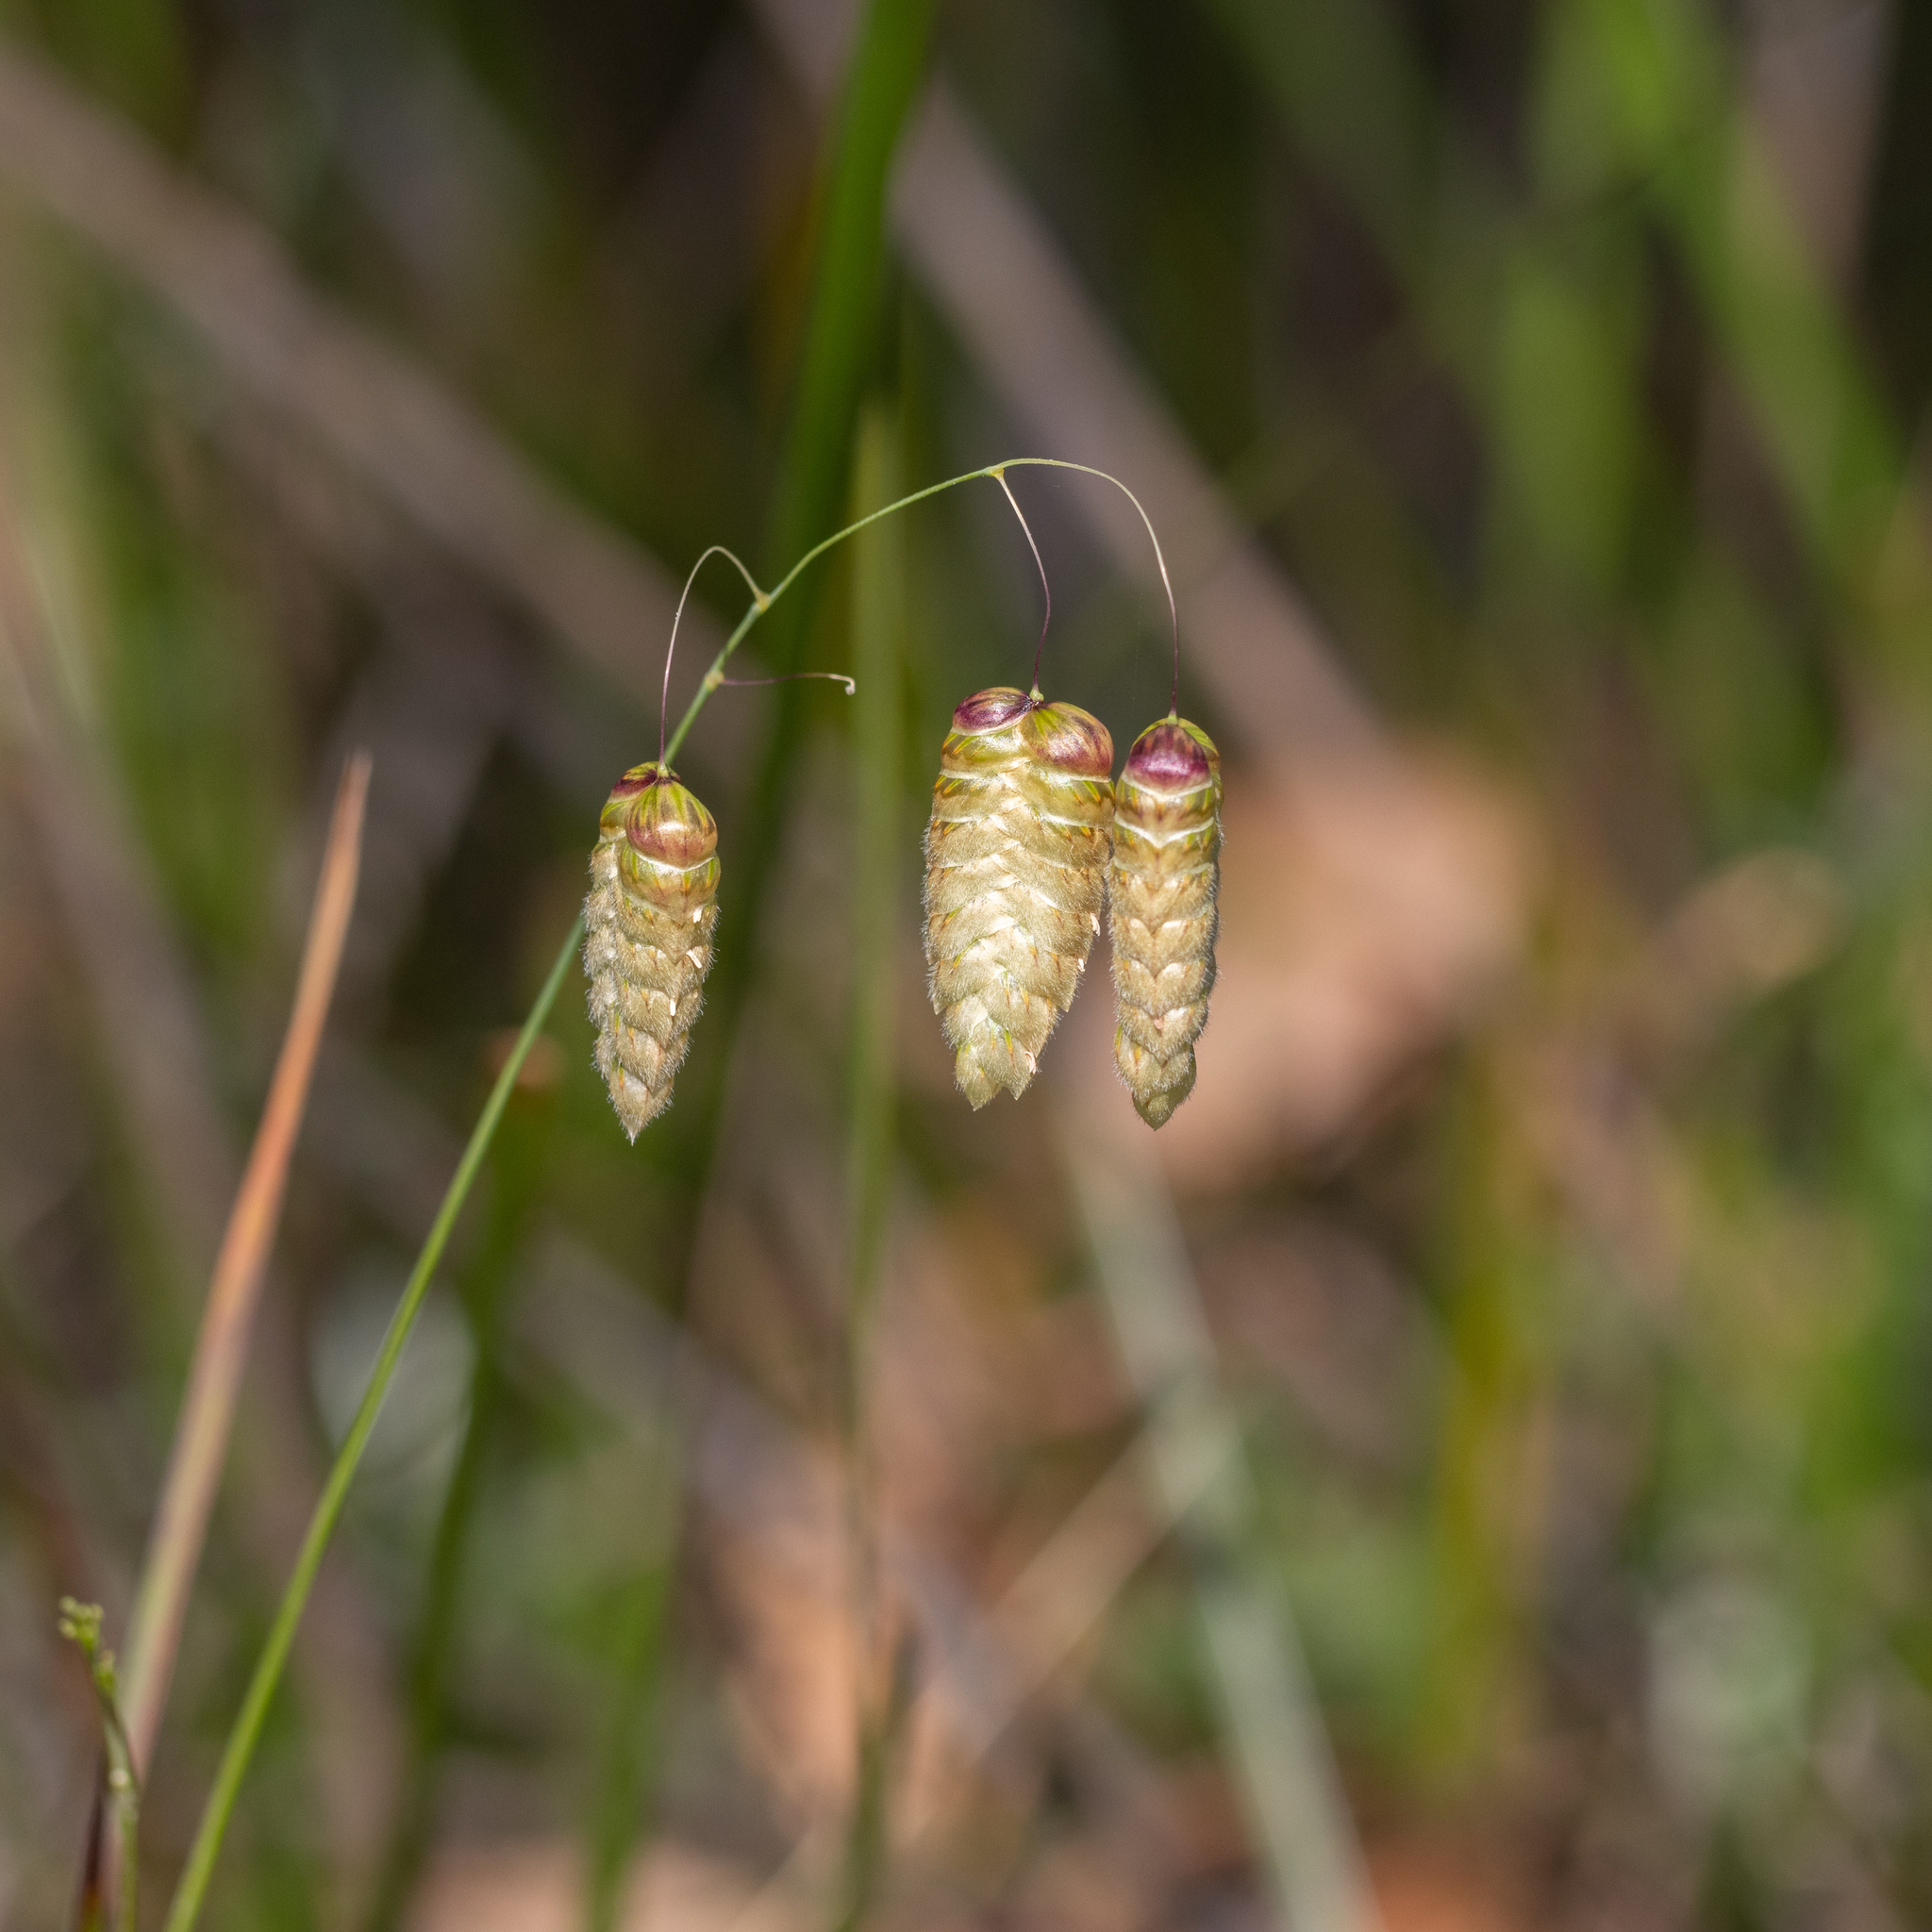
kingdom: Plantae
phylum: Tracheophyta
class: Liliopsida
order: Poales
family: Poaceae
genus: Briza
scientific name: Briza maxima
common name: Big quakinggrass
